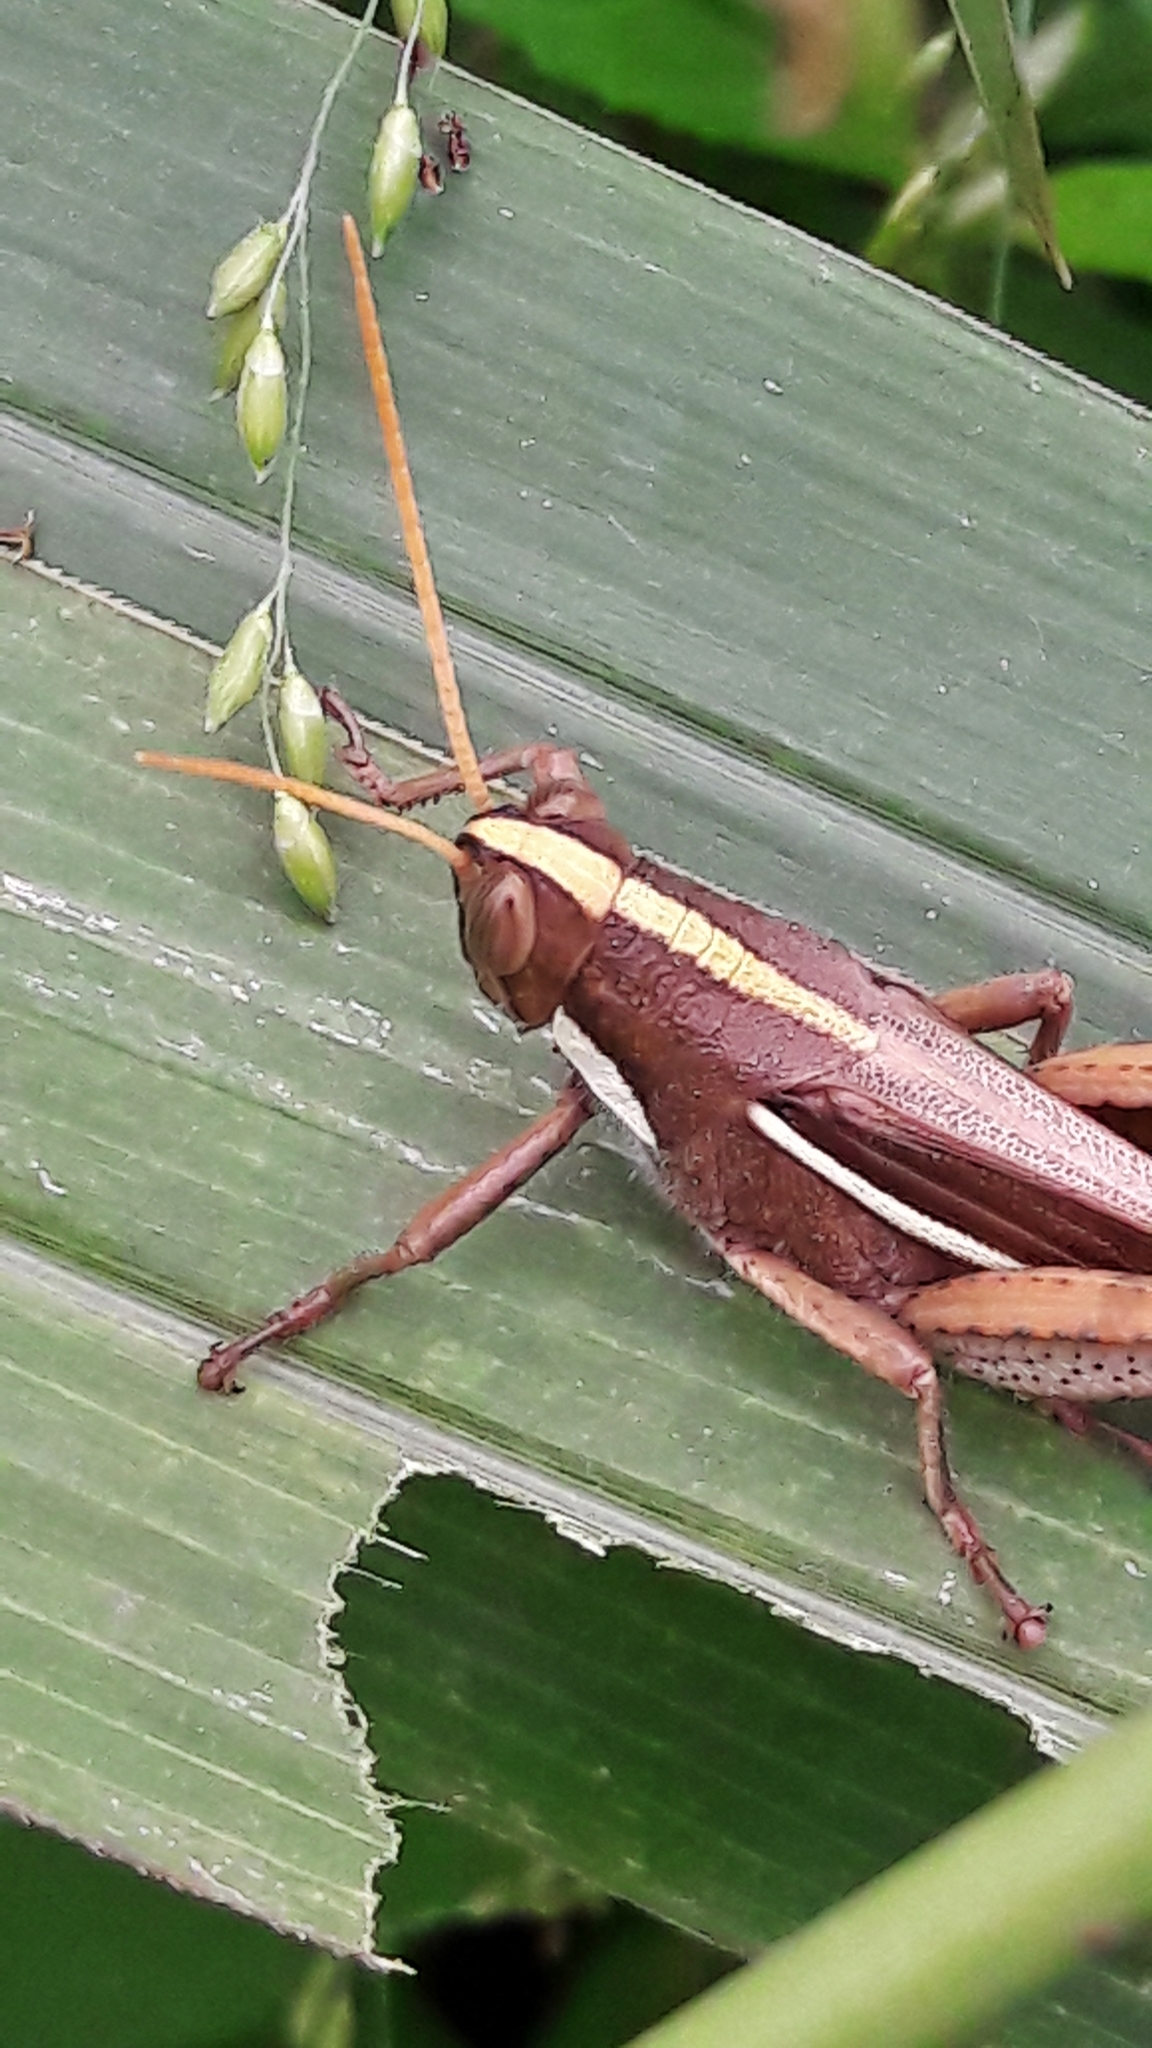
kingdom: Animalia
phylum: Arthropoda
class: Insecta
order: Orthoptera
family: Acrididae
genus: Schistocerca
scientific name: Schistocerca flavofasciata
